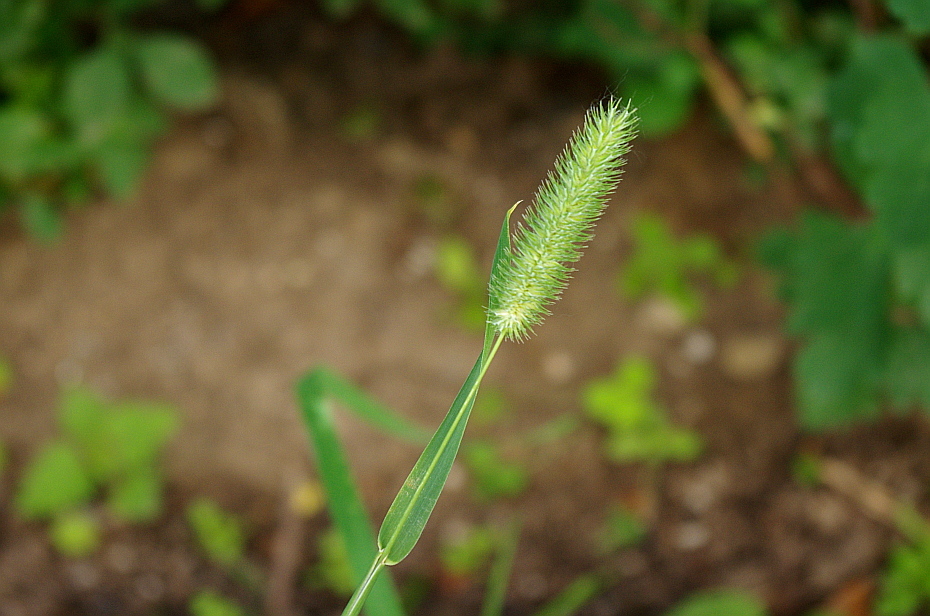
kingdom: Plantae
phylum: Tracheophyta
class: Liliopsida
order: Poales
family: Poaceae
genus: Phleum
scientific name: Phleum pratense
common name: Timothy grass
